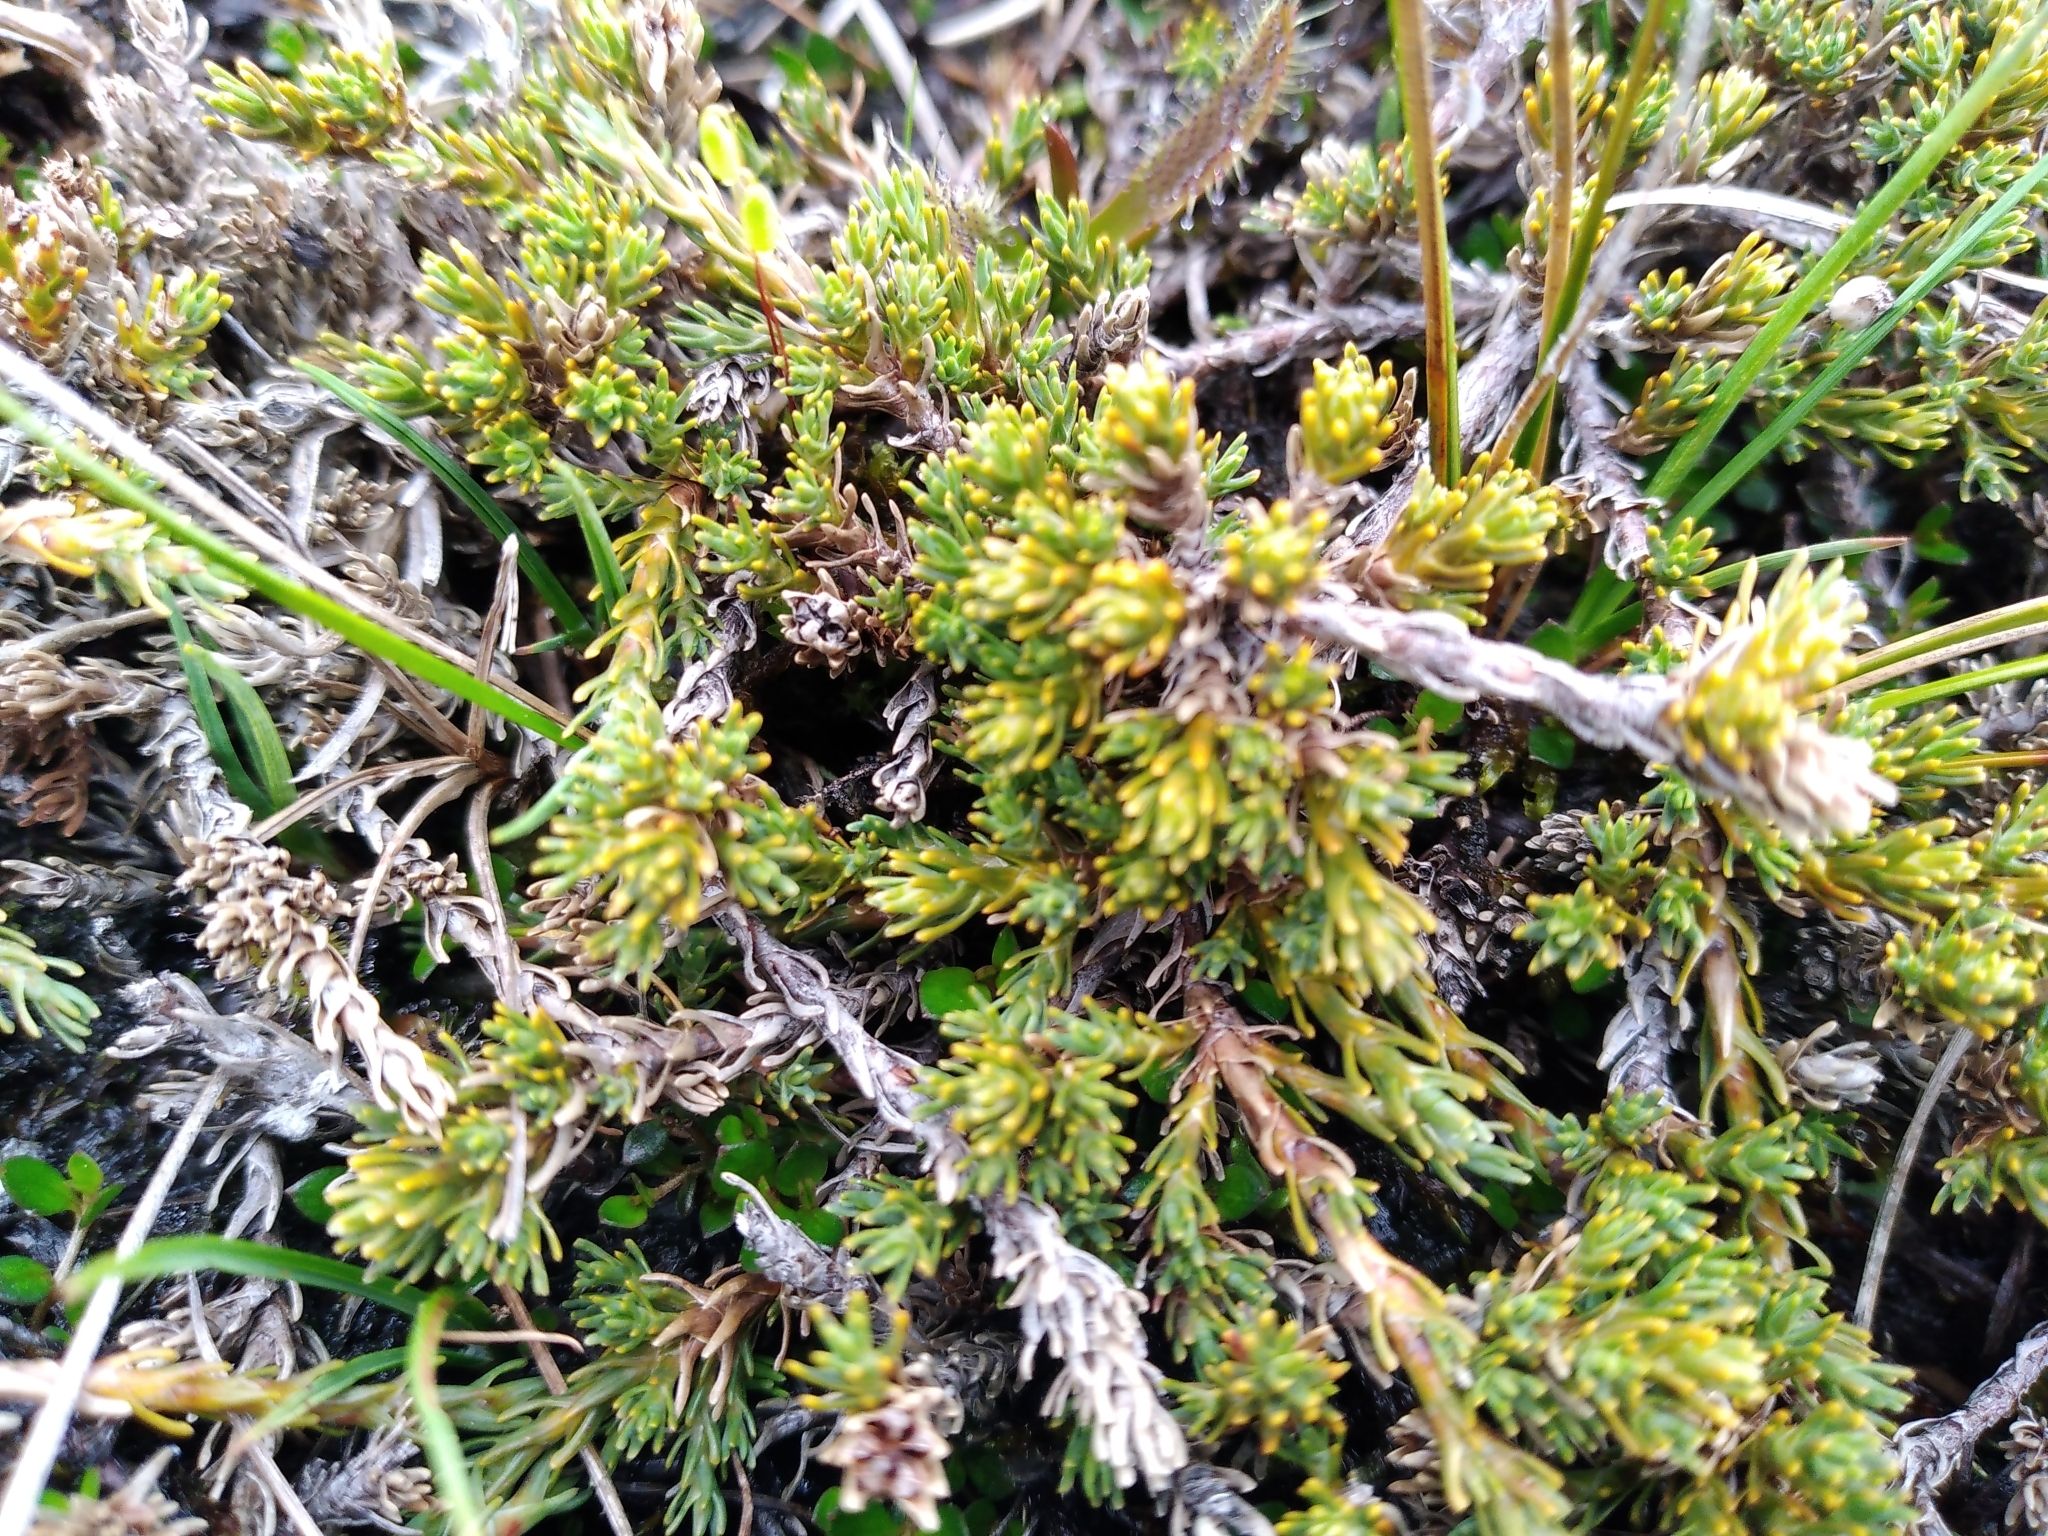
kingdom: Plantae
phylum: Tracheophyta
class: Magnoliopsida
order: Ericales
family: Ericaceae
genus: Dracophyllum
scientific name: Dracophyllum prostratum
